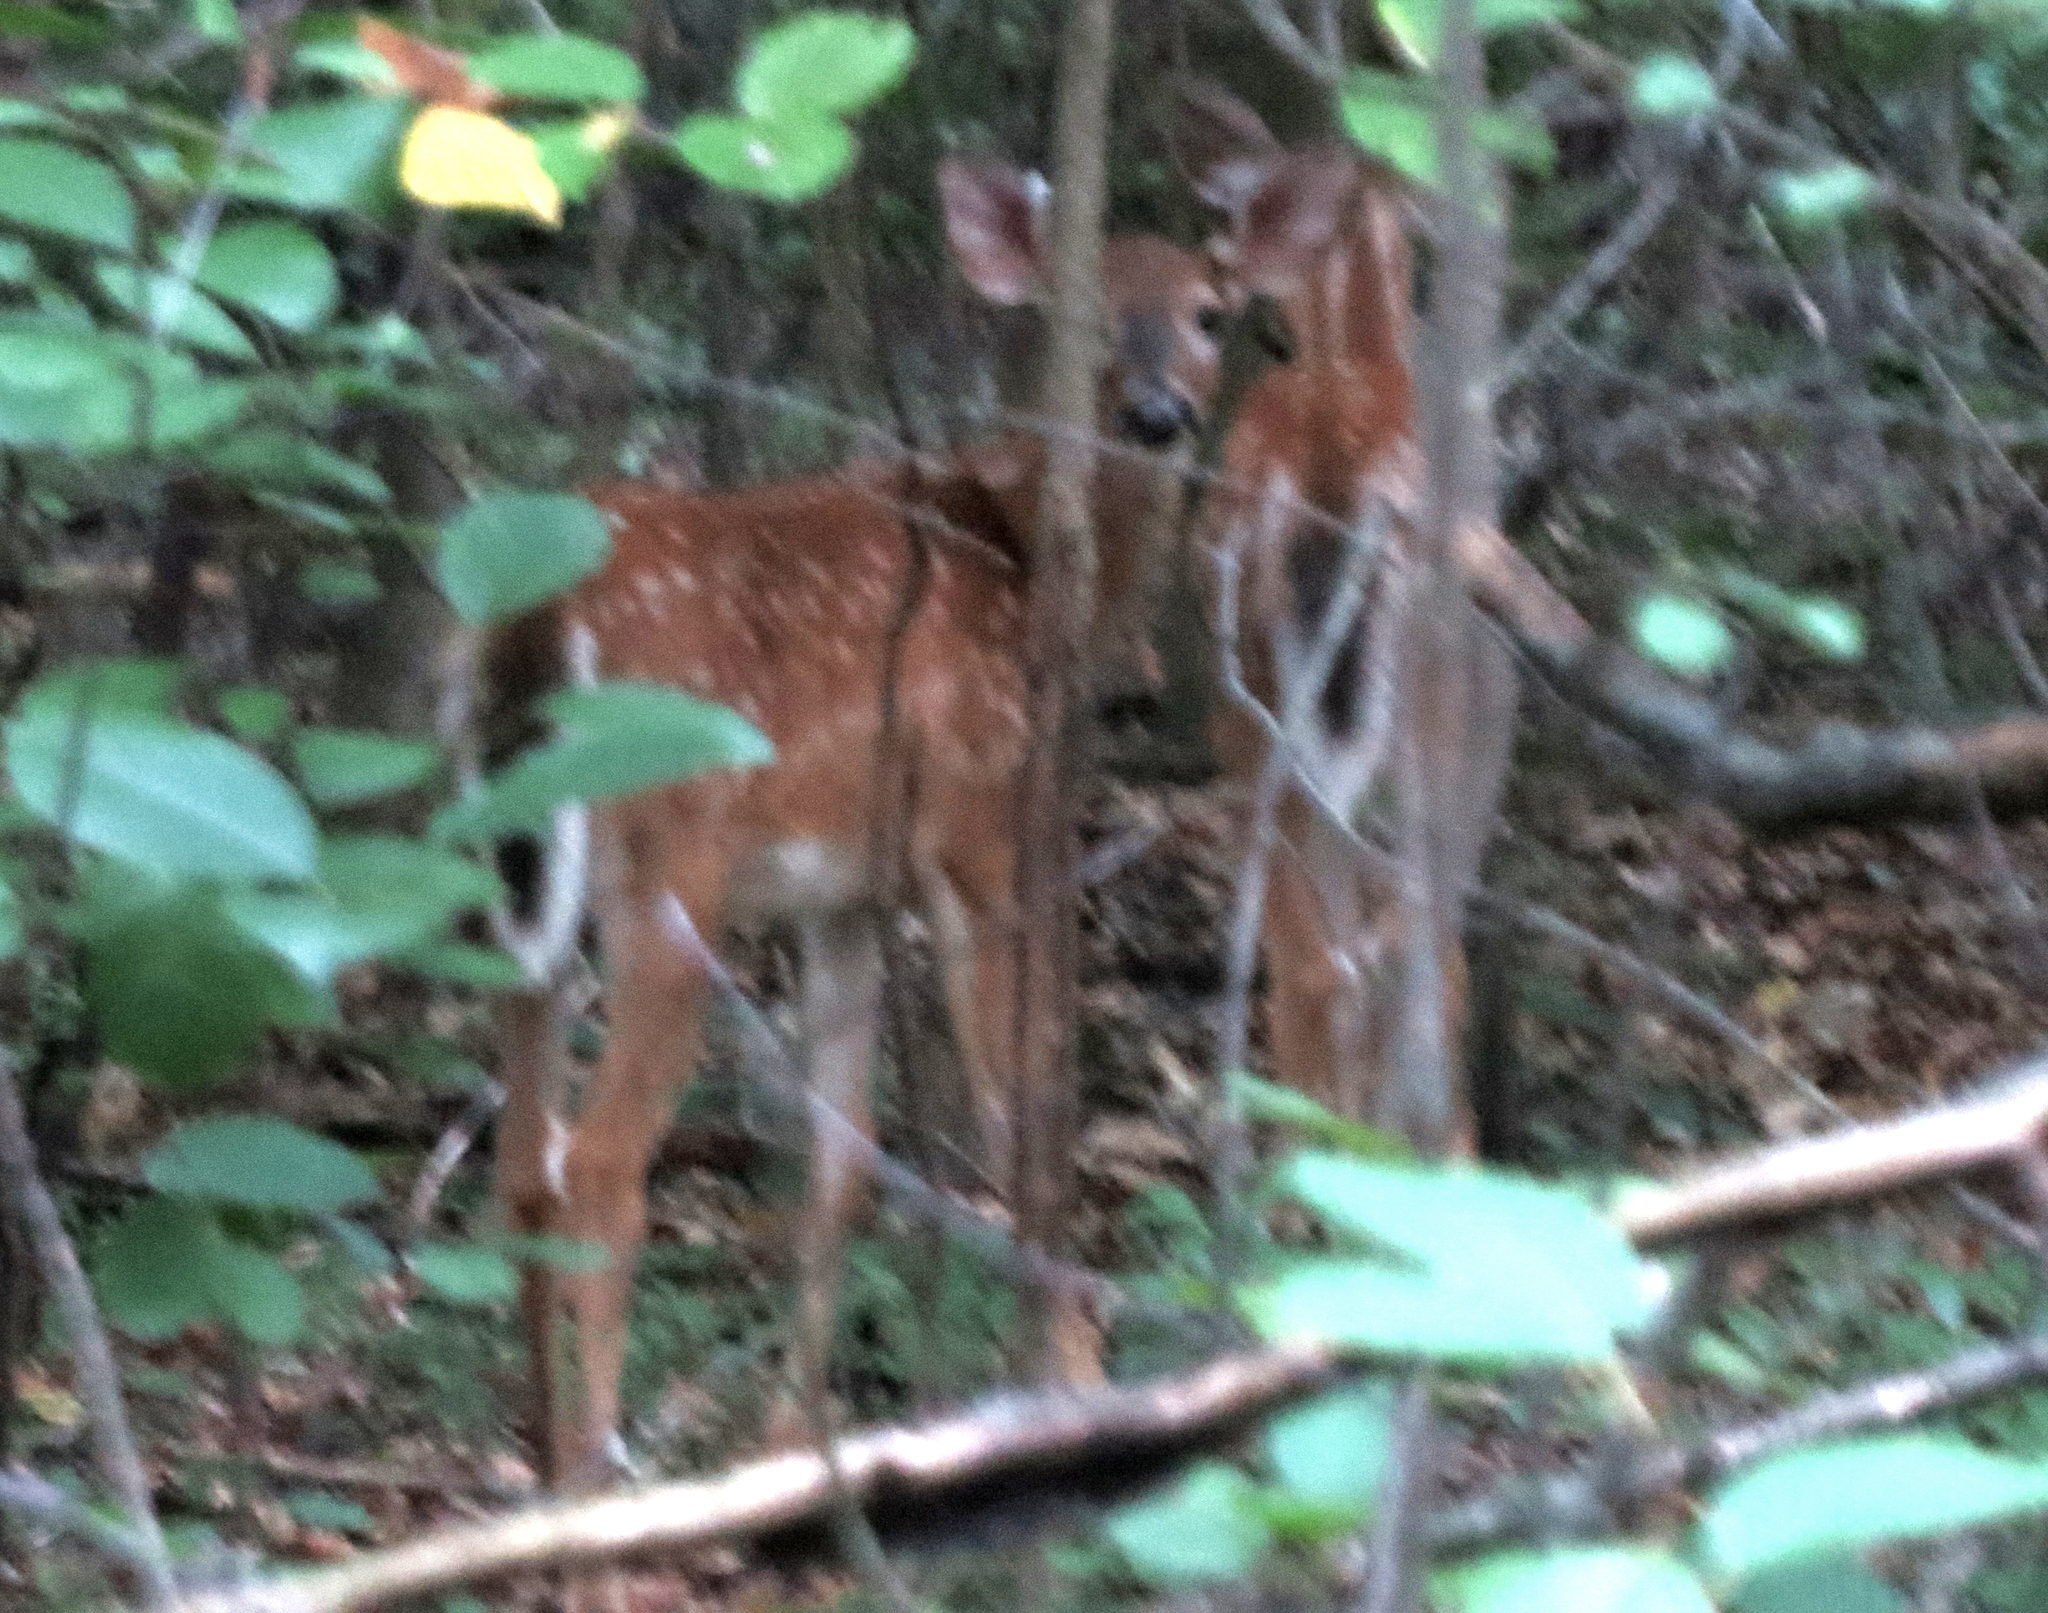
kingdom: Animalia
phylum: Chordata
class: Mammalia
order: Artiodactyla
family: Cervidae
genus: Odocoileus
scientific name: Odocoileus virginianus
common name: White-tailed deer
